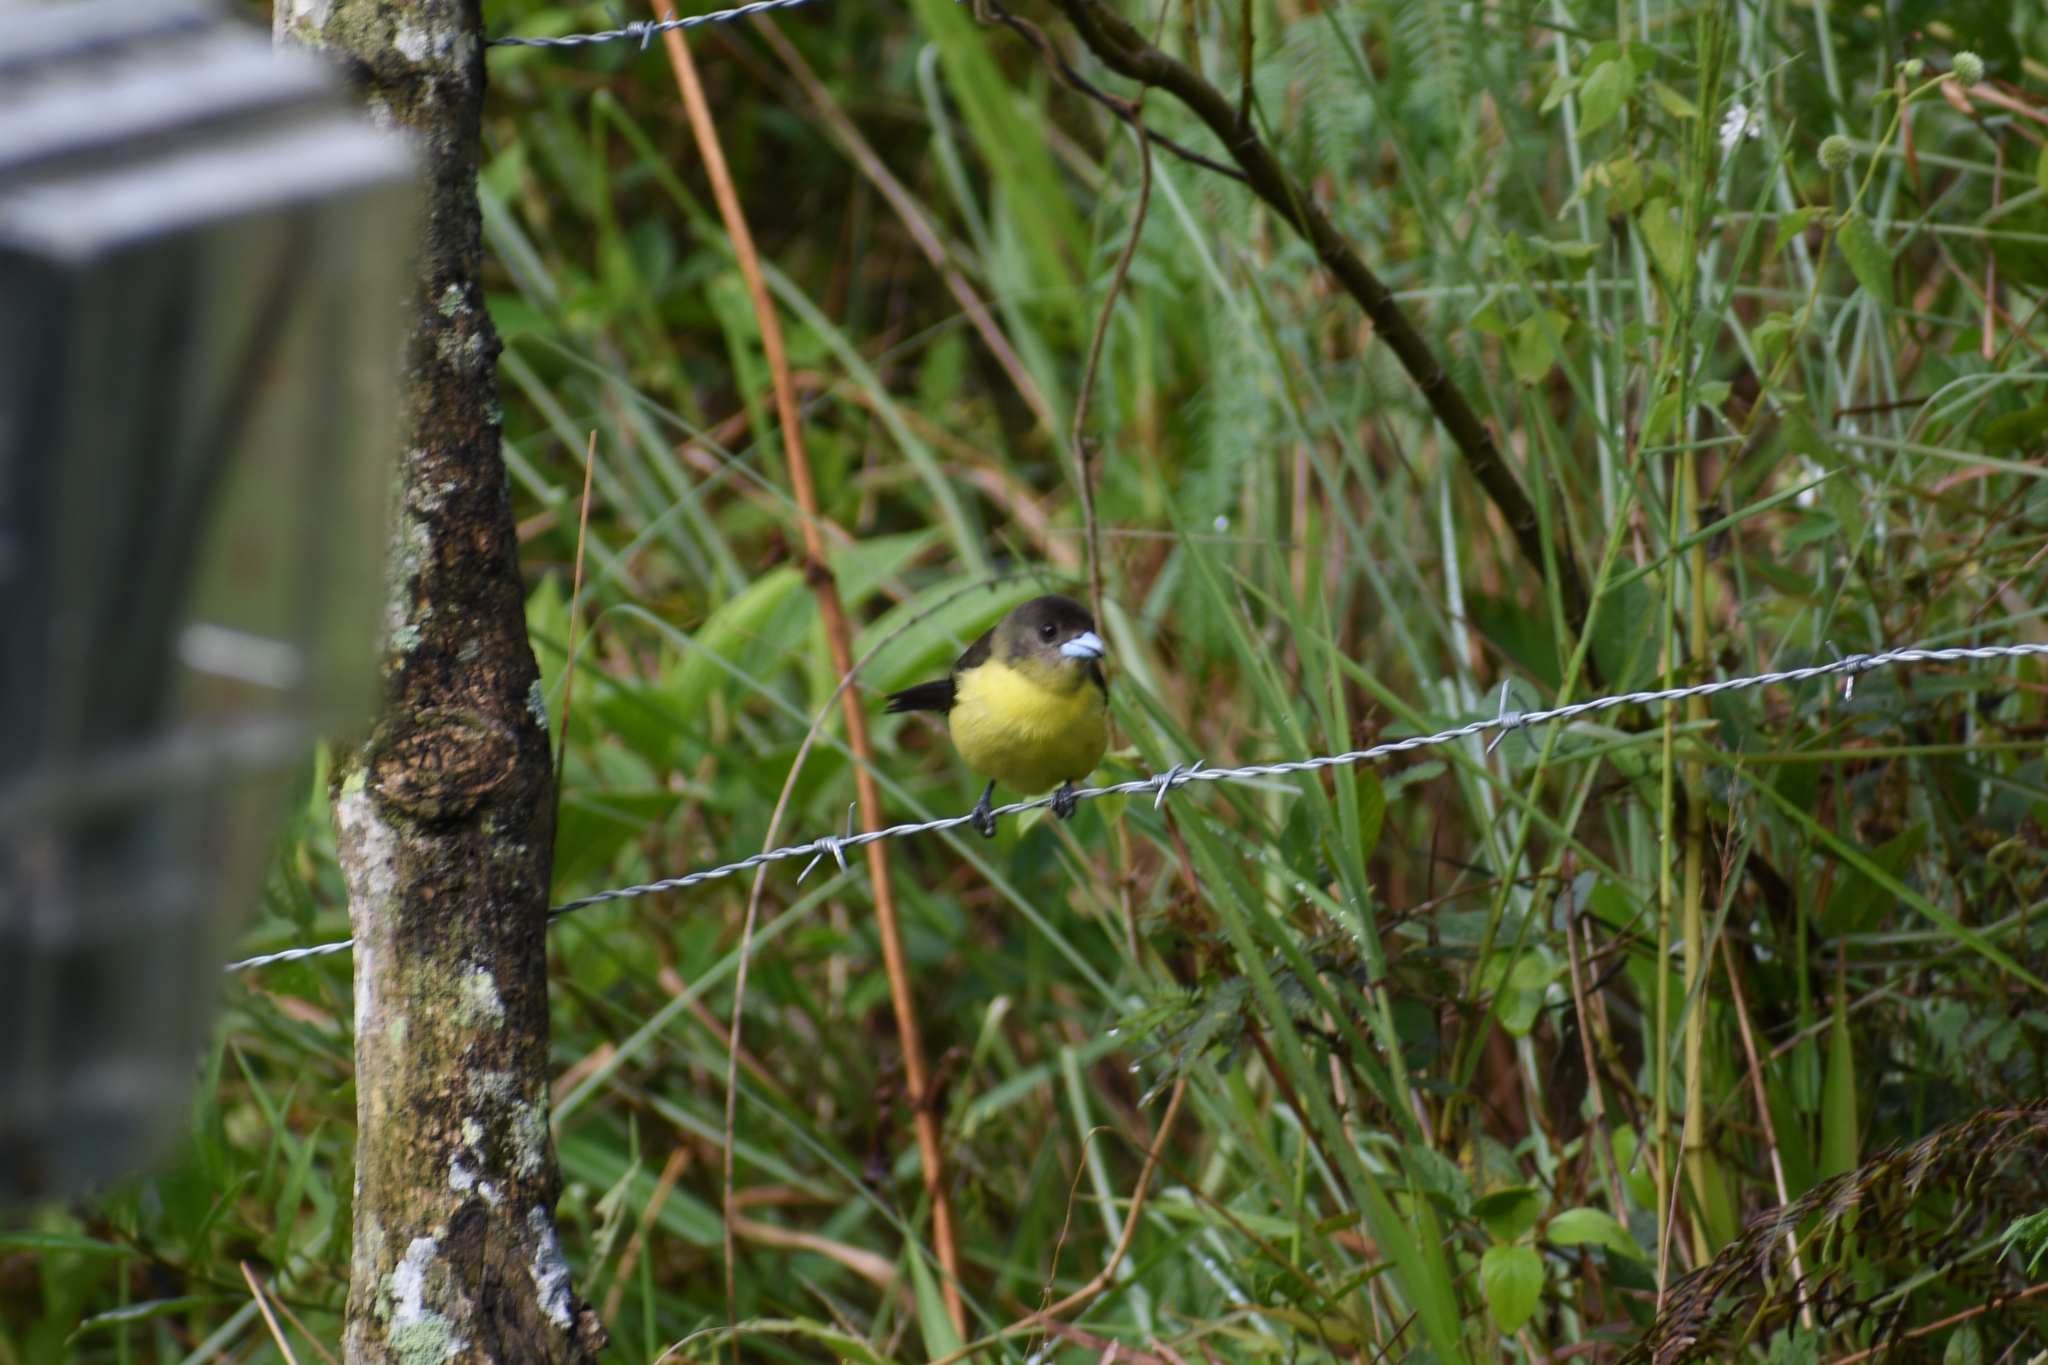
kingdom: Animalia
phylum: Chordata
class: Aves
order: Passeriformes
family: Thraupidae
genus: Ramphocelus
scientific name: Ramphocelus icteronotus
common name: Lemon-rumped tanager
